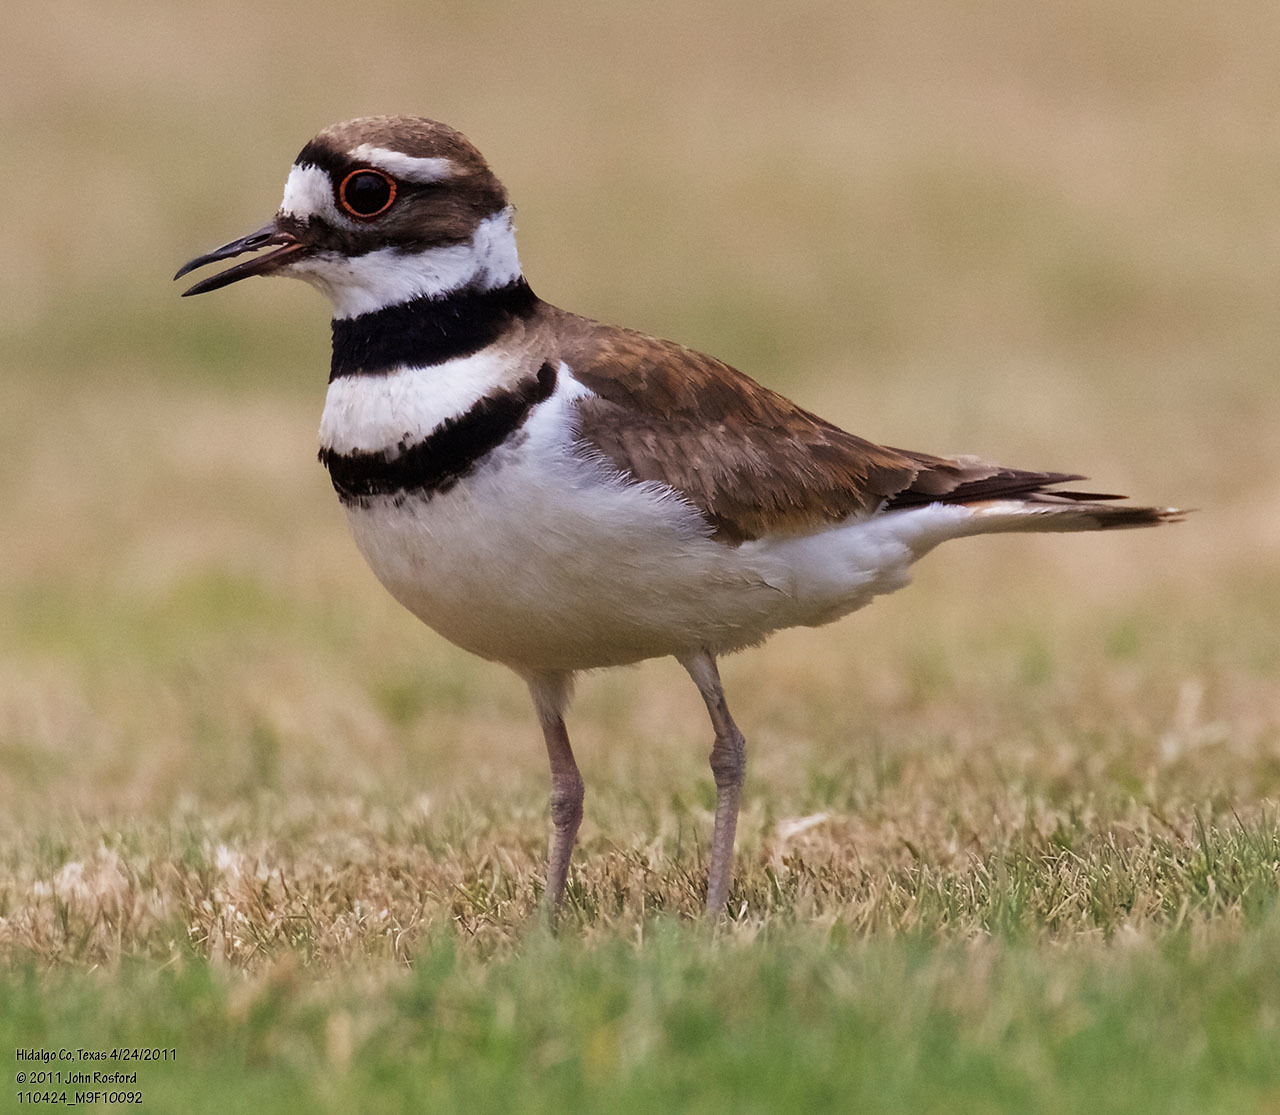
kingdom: Animalia
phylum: Chordata
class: Aves
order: Charadriiformes
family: Charadriidae
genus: Charadrius
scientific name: Charadrius vociferus
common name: Killdeer
